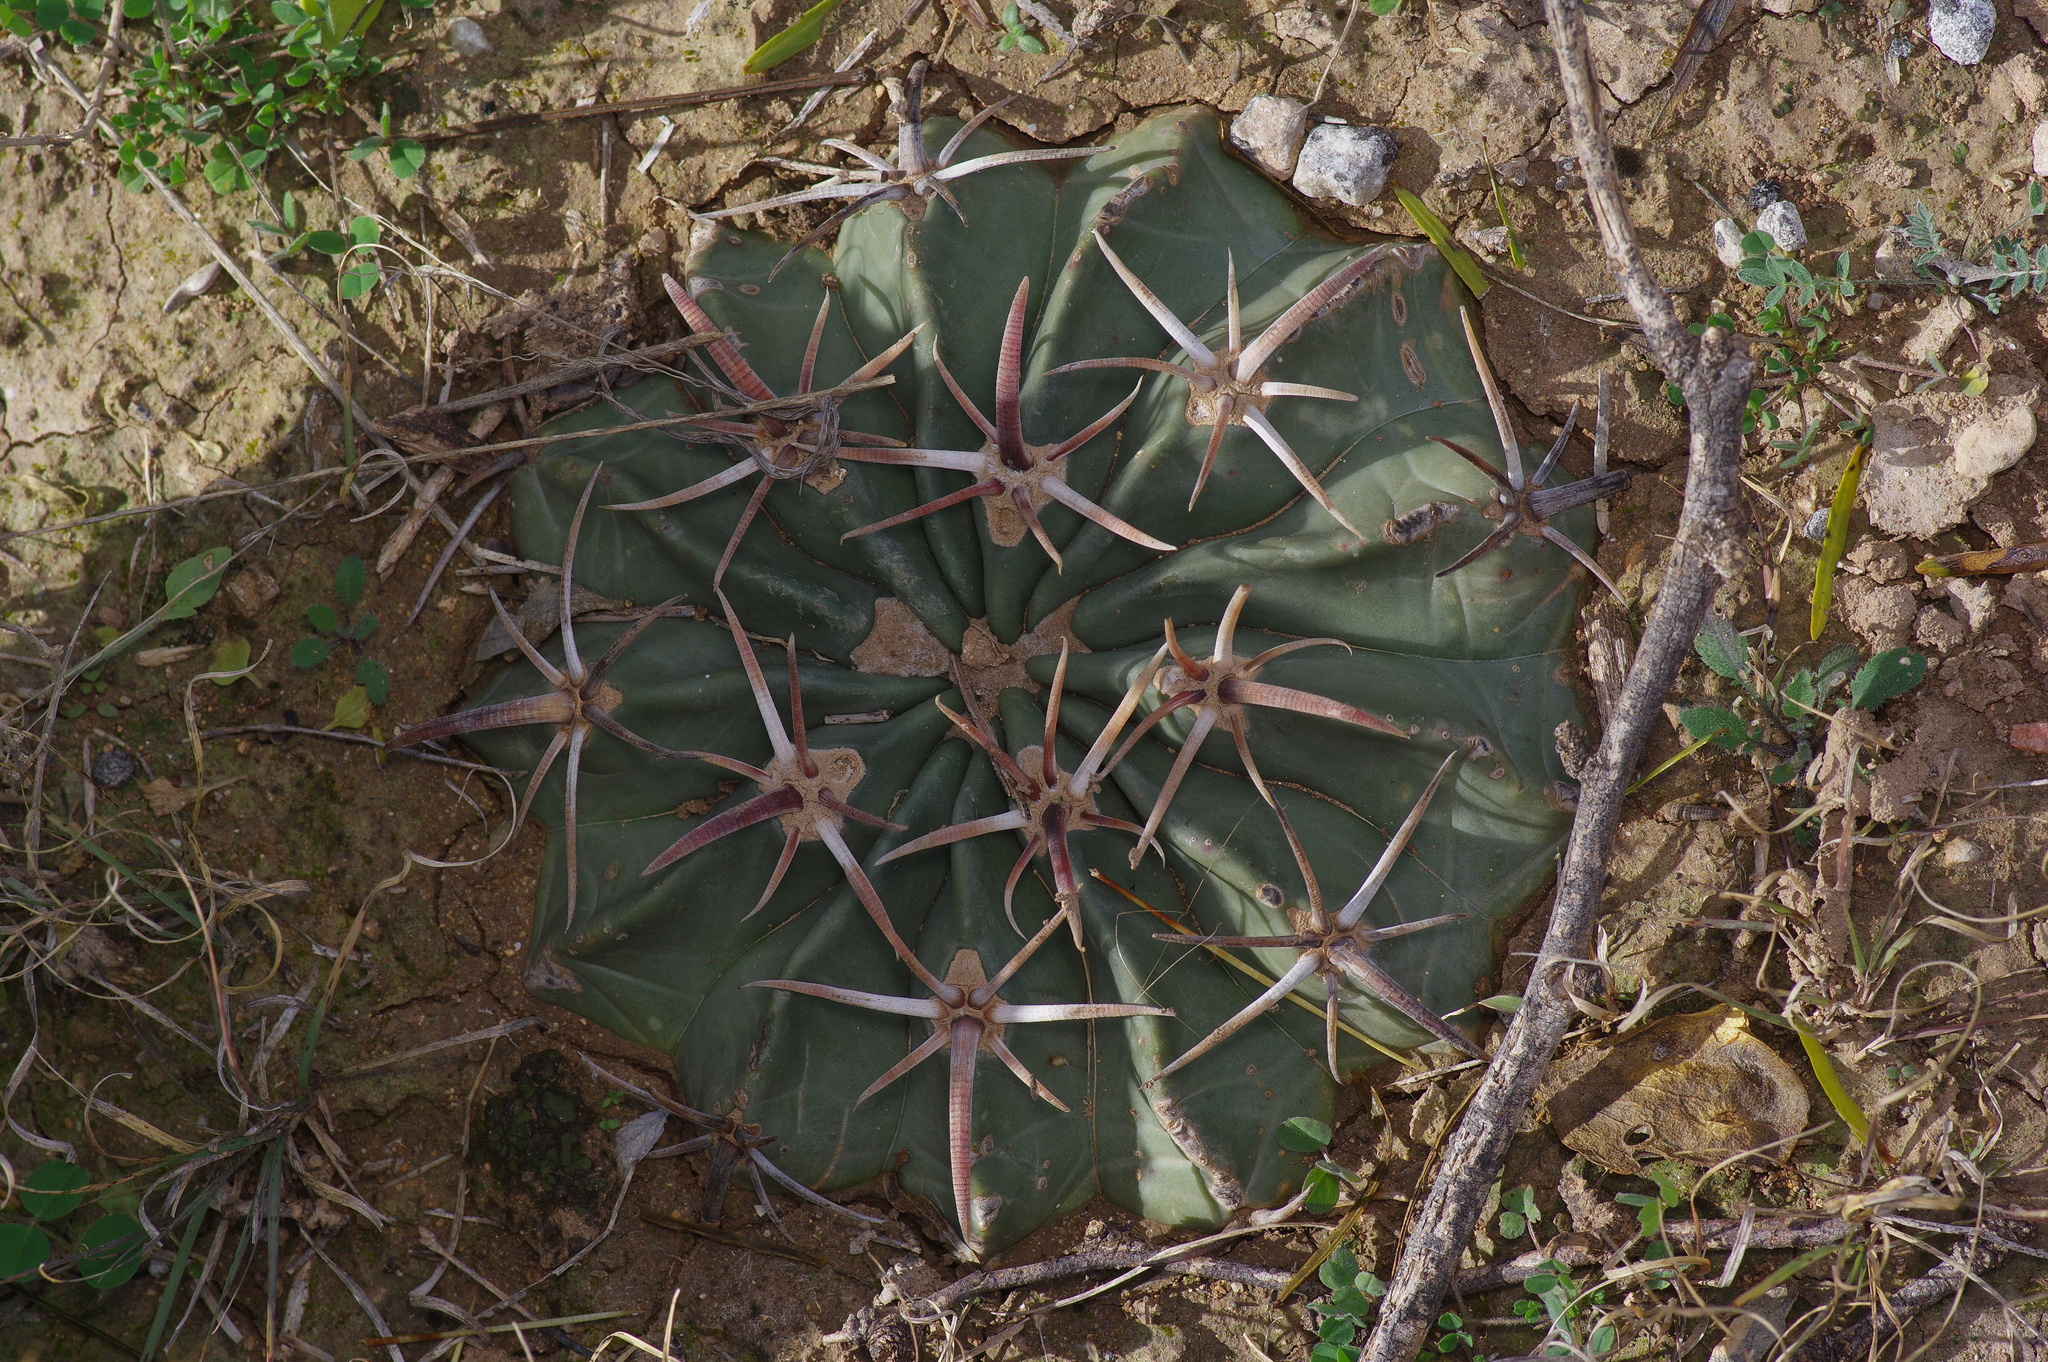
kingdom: Plantae
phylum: Tracheophyta
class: Magnoliopsida
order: Caryophyllales
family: Cactaceae
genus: Echinocactus
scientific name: Echinocactus texensis
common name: Devil's pincushion
